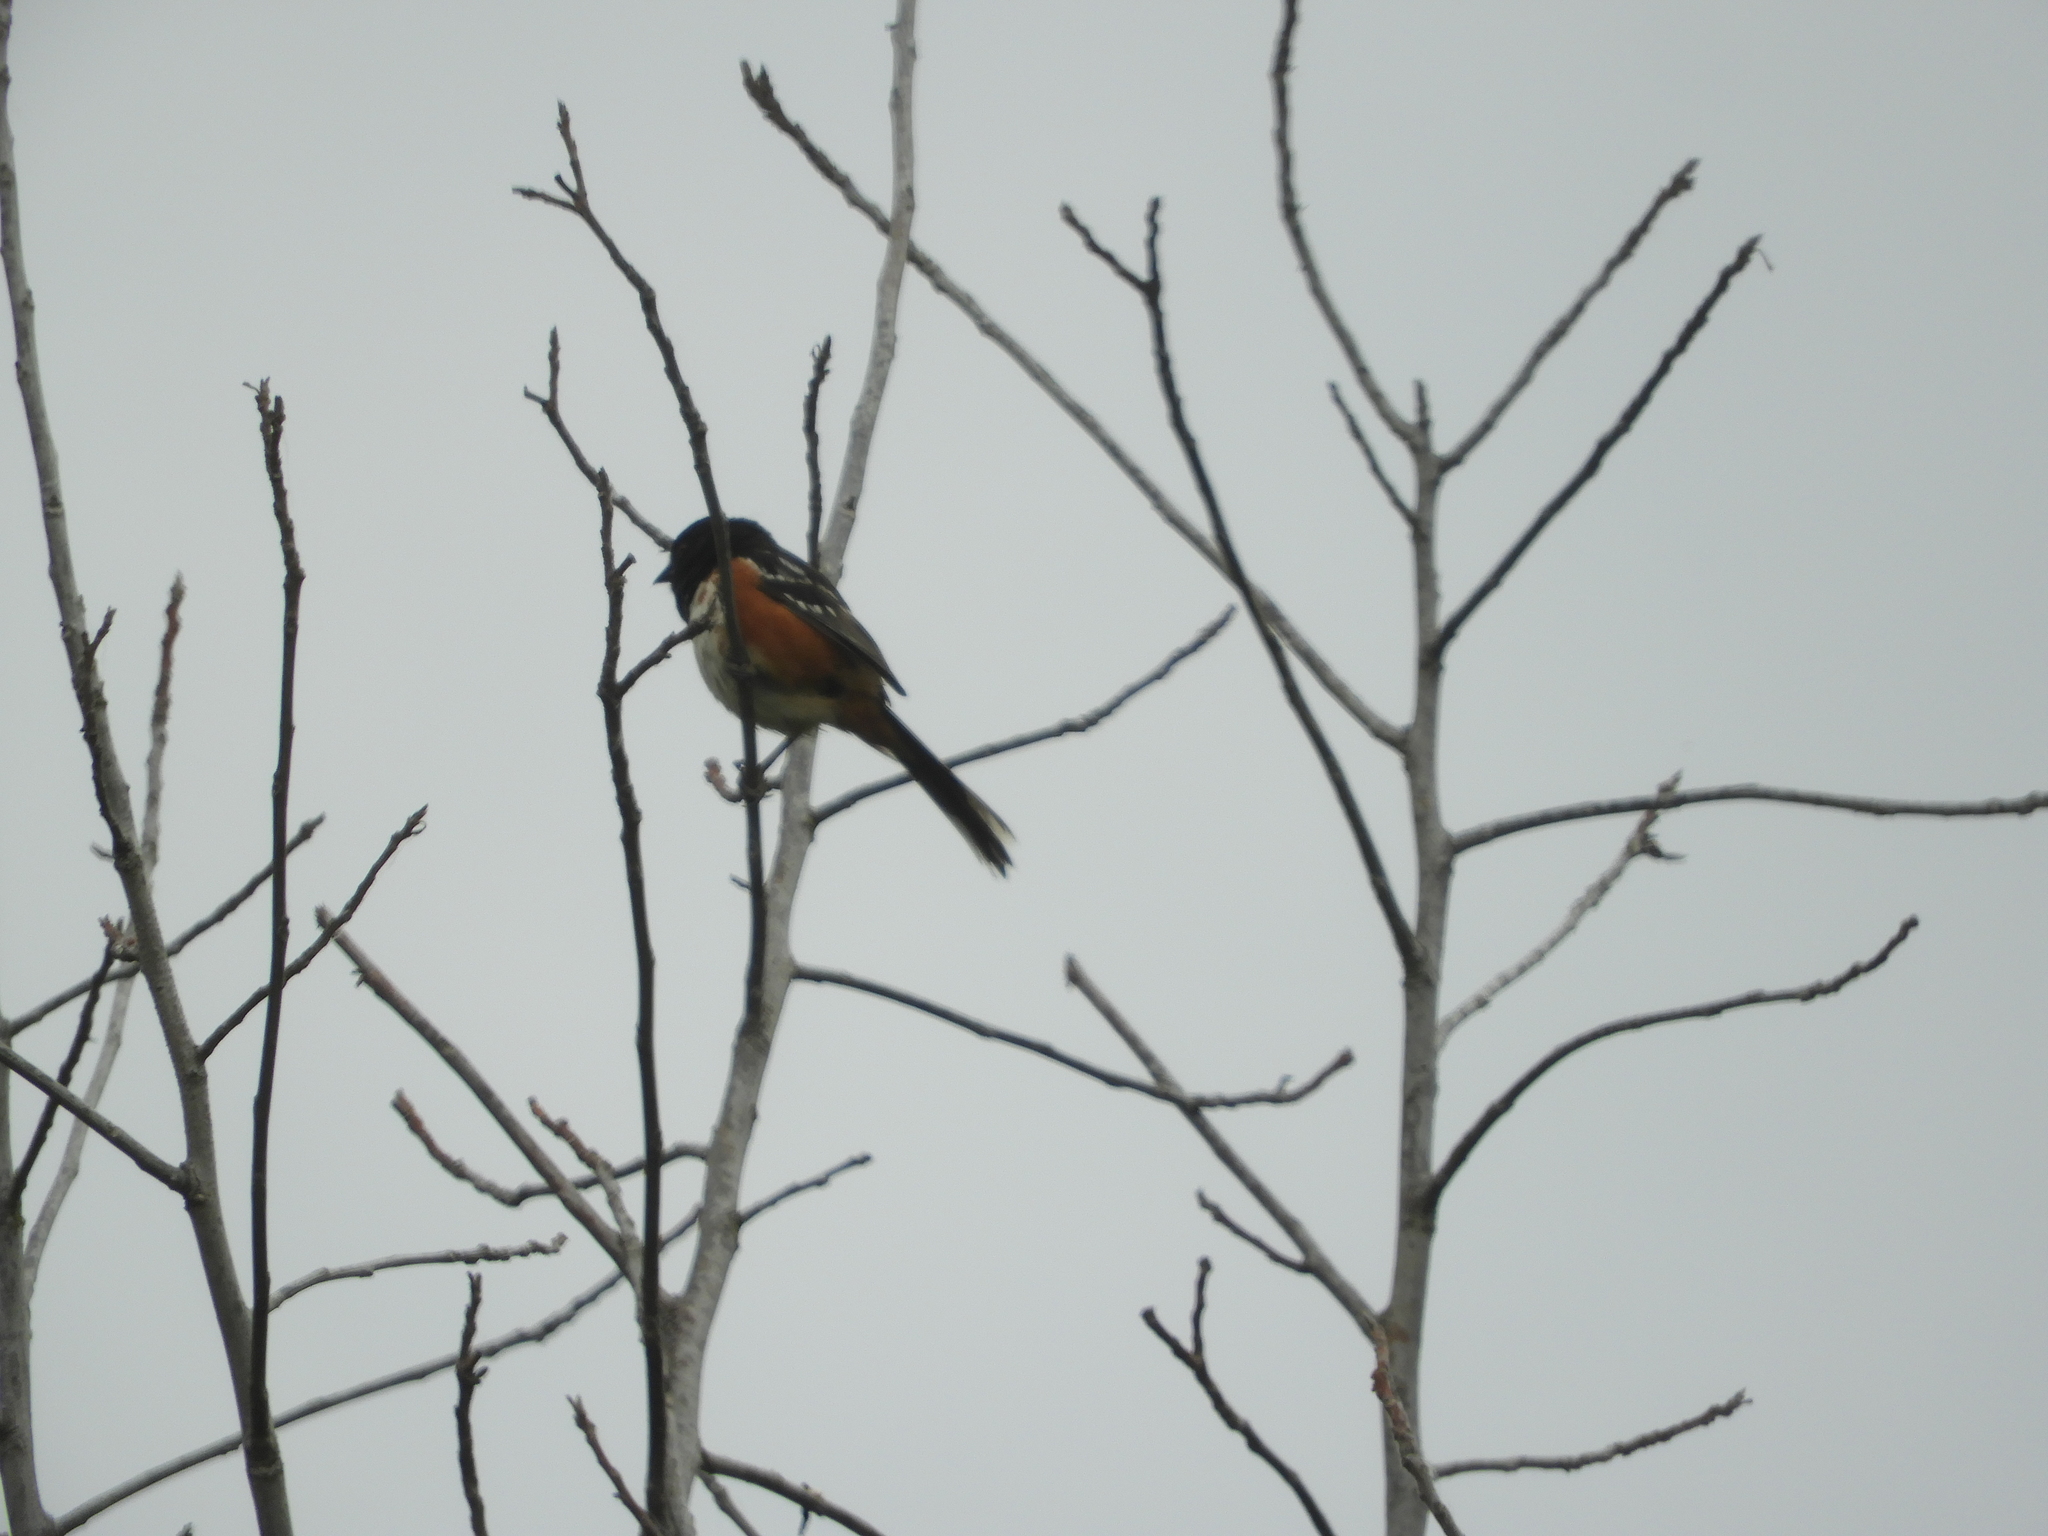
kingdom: Animalia
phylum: Chordata
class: Aves
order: Passeriformes
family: Passerellidae
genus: Pipilo
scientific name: Pipilo maculatus
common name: Spotted towhee
